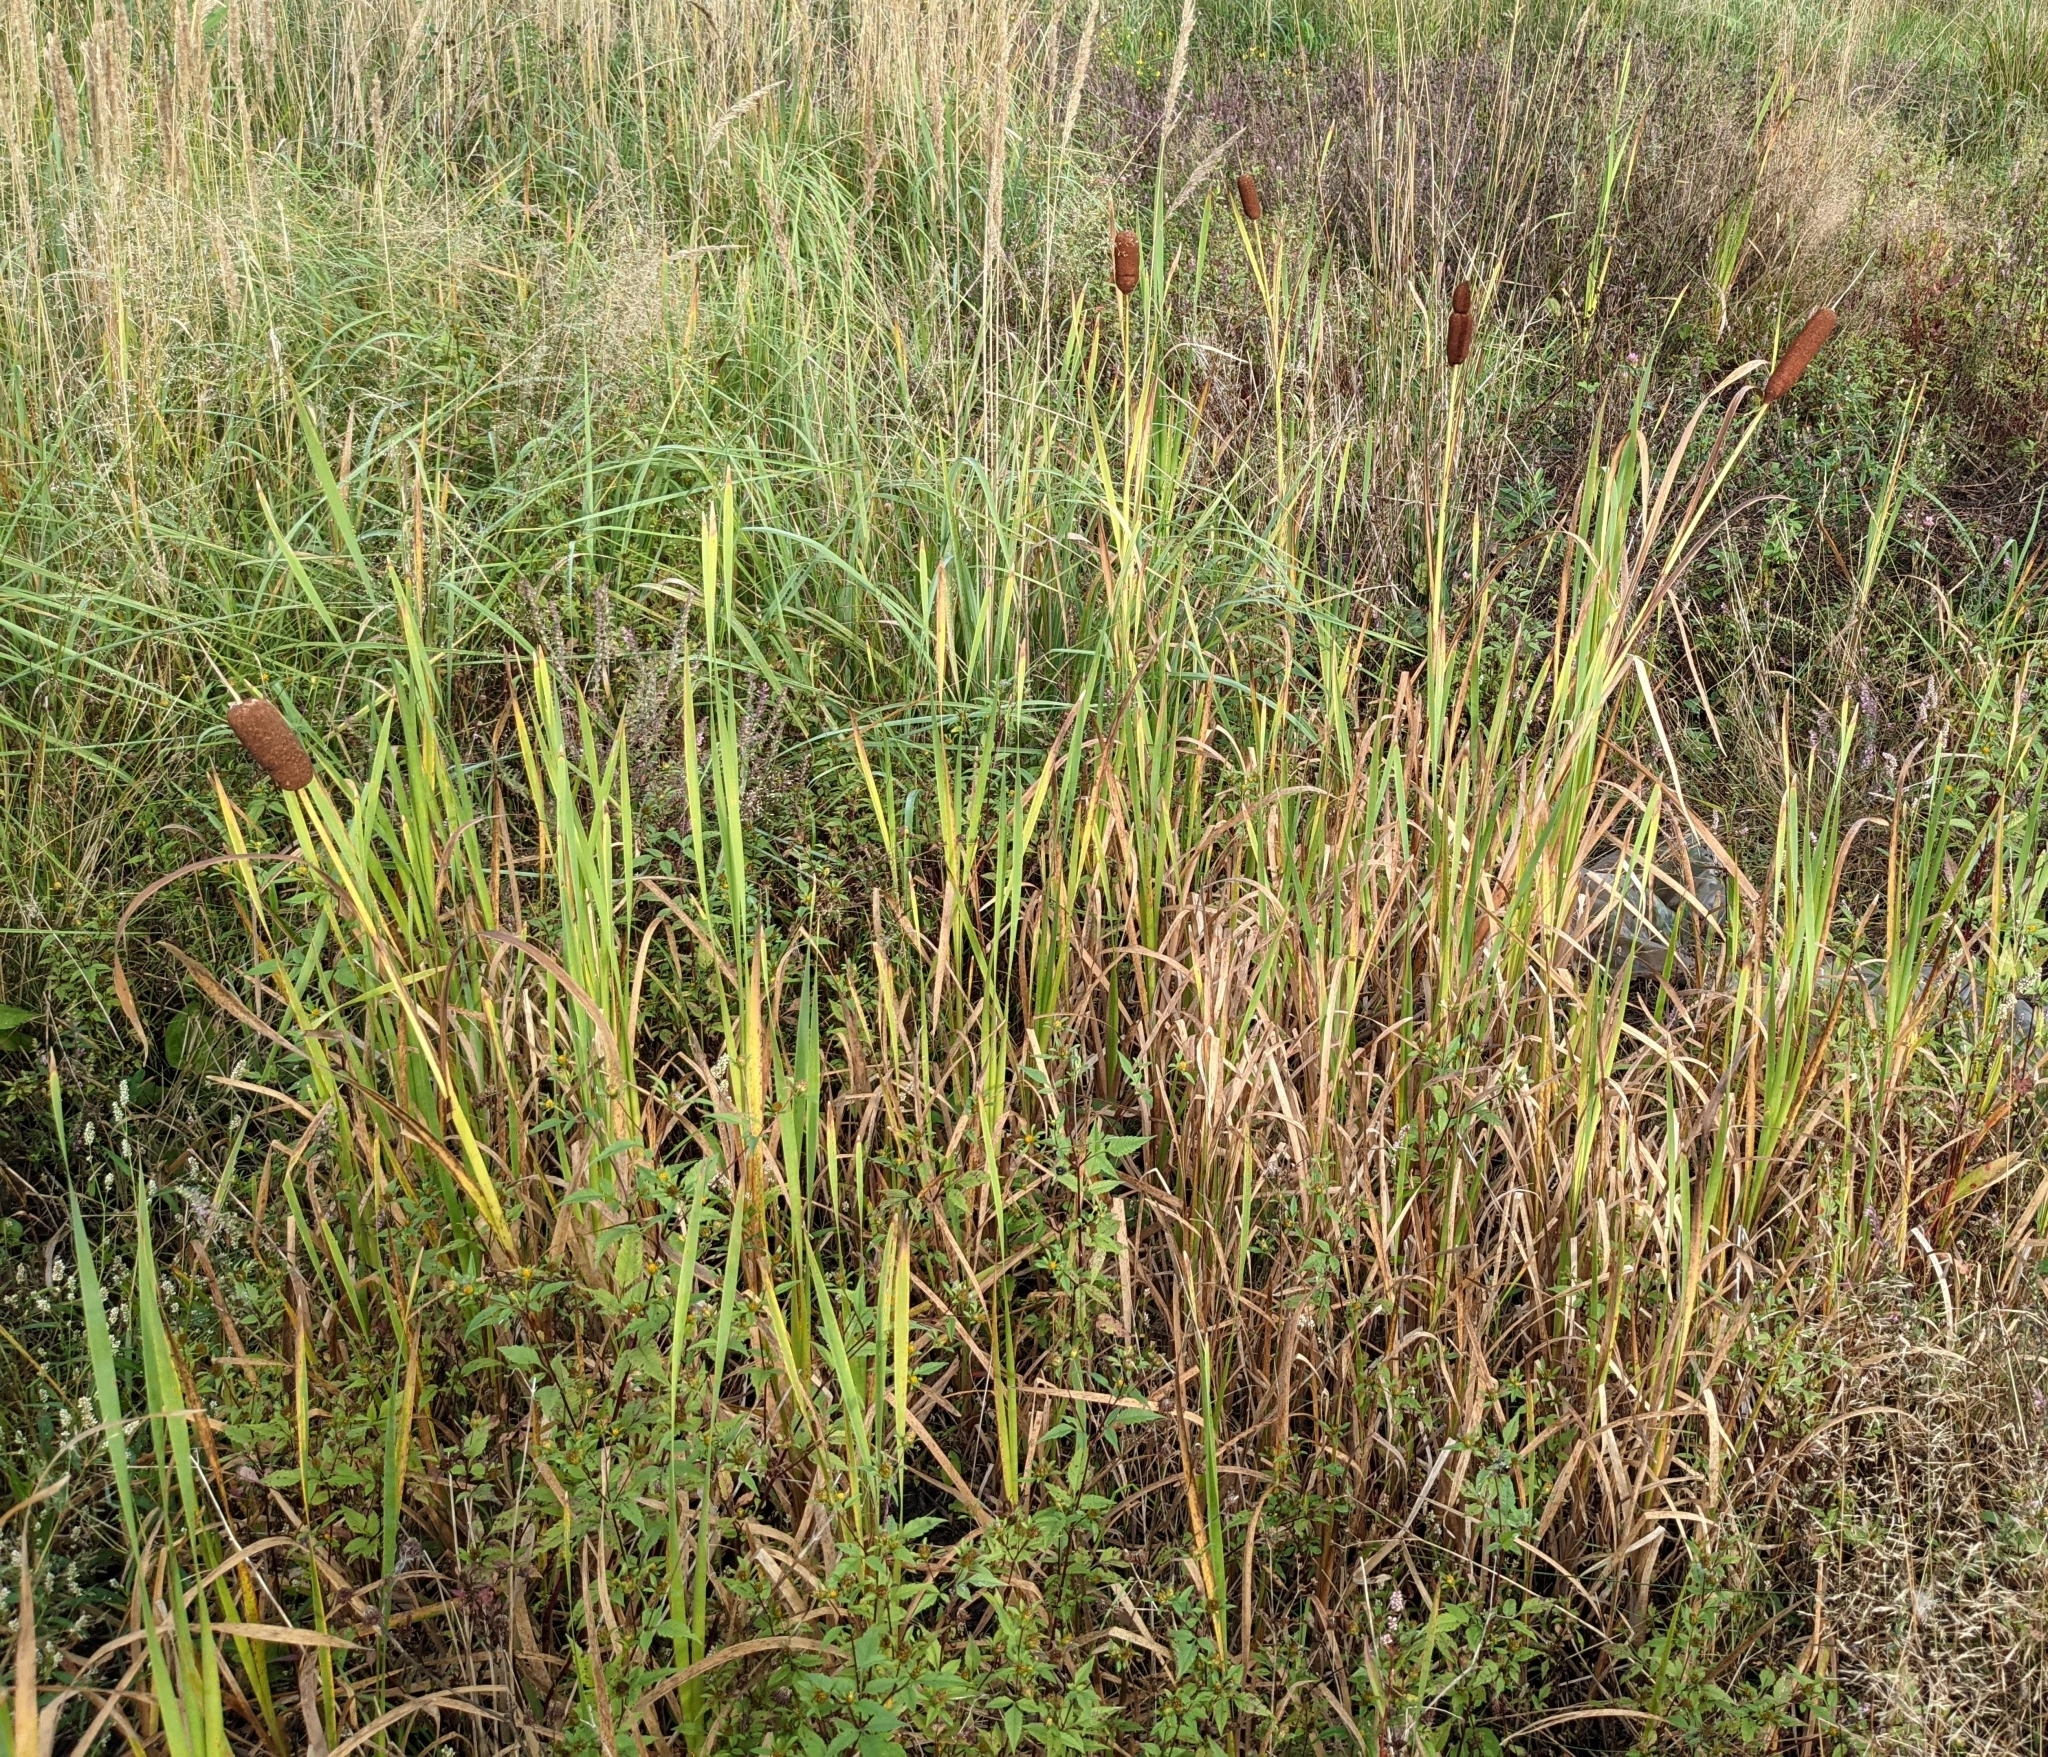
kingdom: Plantae
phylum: Tracheophyta
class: Liliopsida
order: Poales
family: Typhaceae
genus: Typha
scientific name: Typha latifolia
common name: Broadleaf cattail
